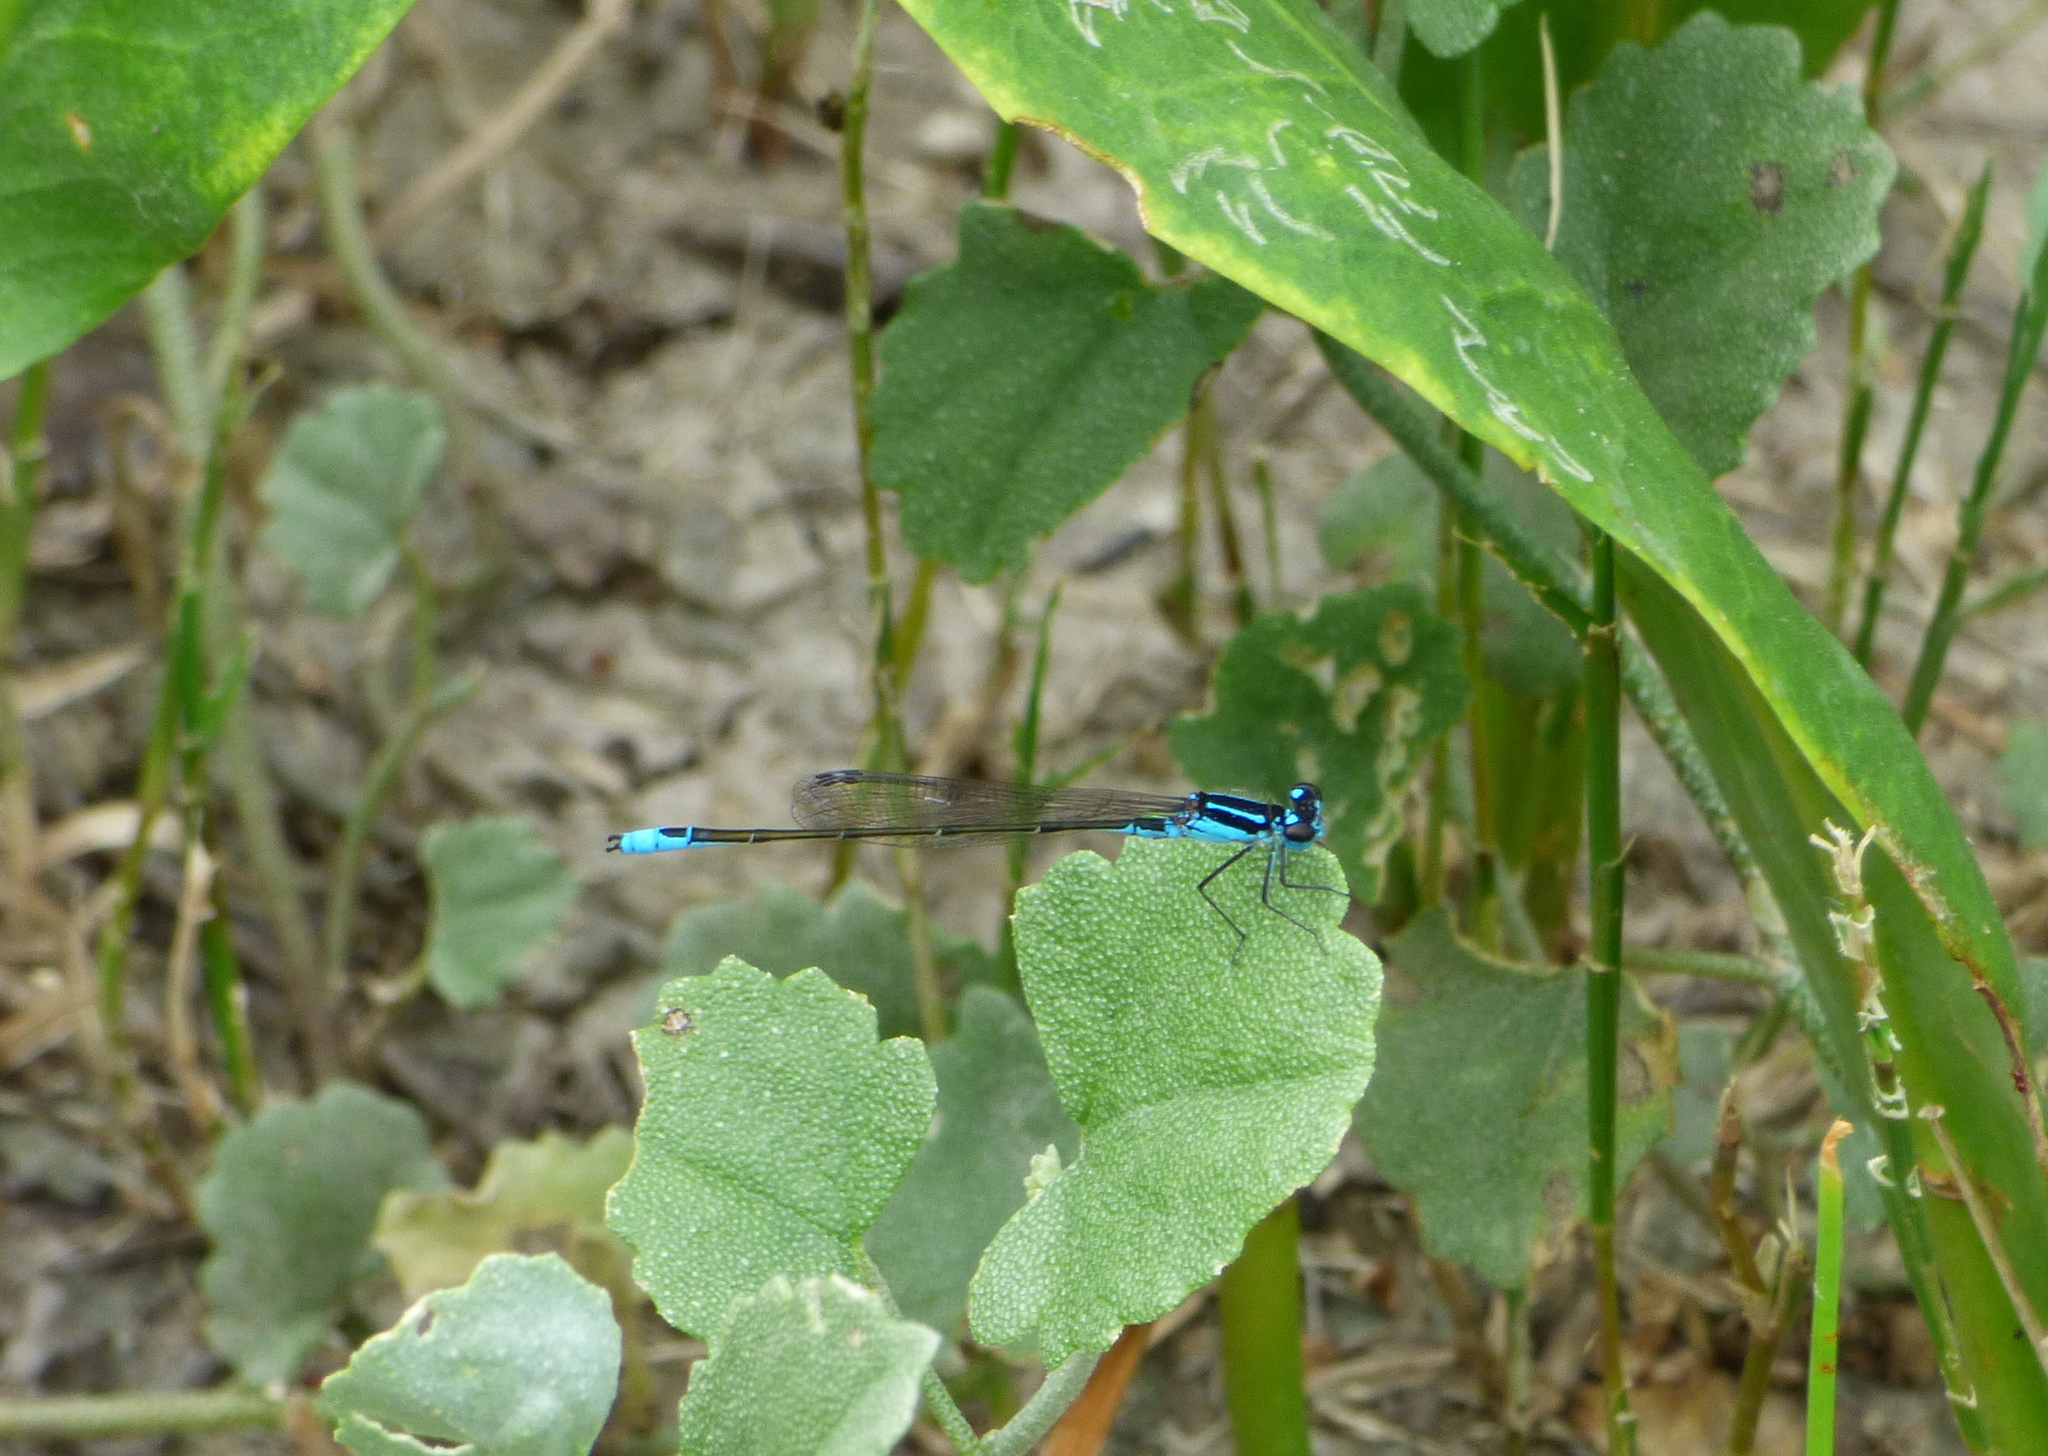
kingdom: Animalia
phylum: Arthropoda
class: Insecta
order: Odonata
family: Coenagrionidae
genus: Homeoura
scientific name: Homeoura chelifera
